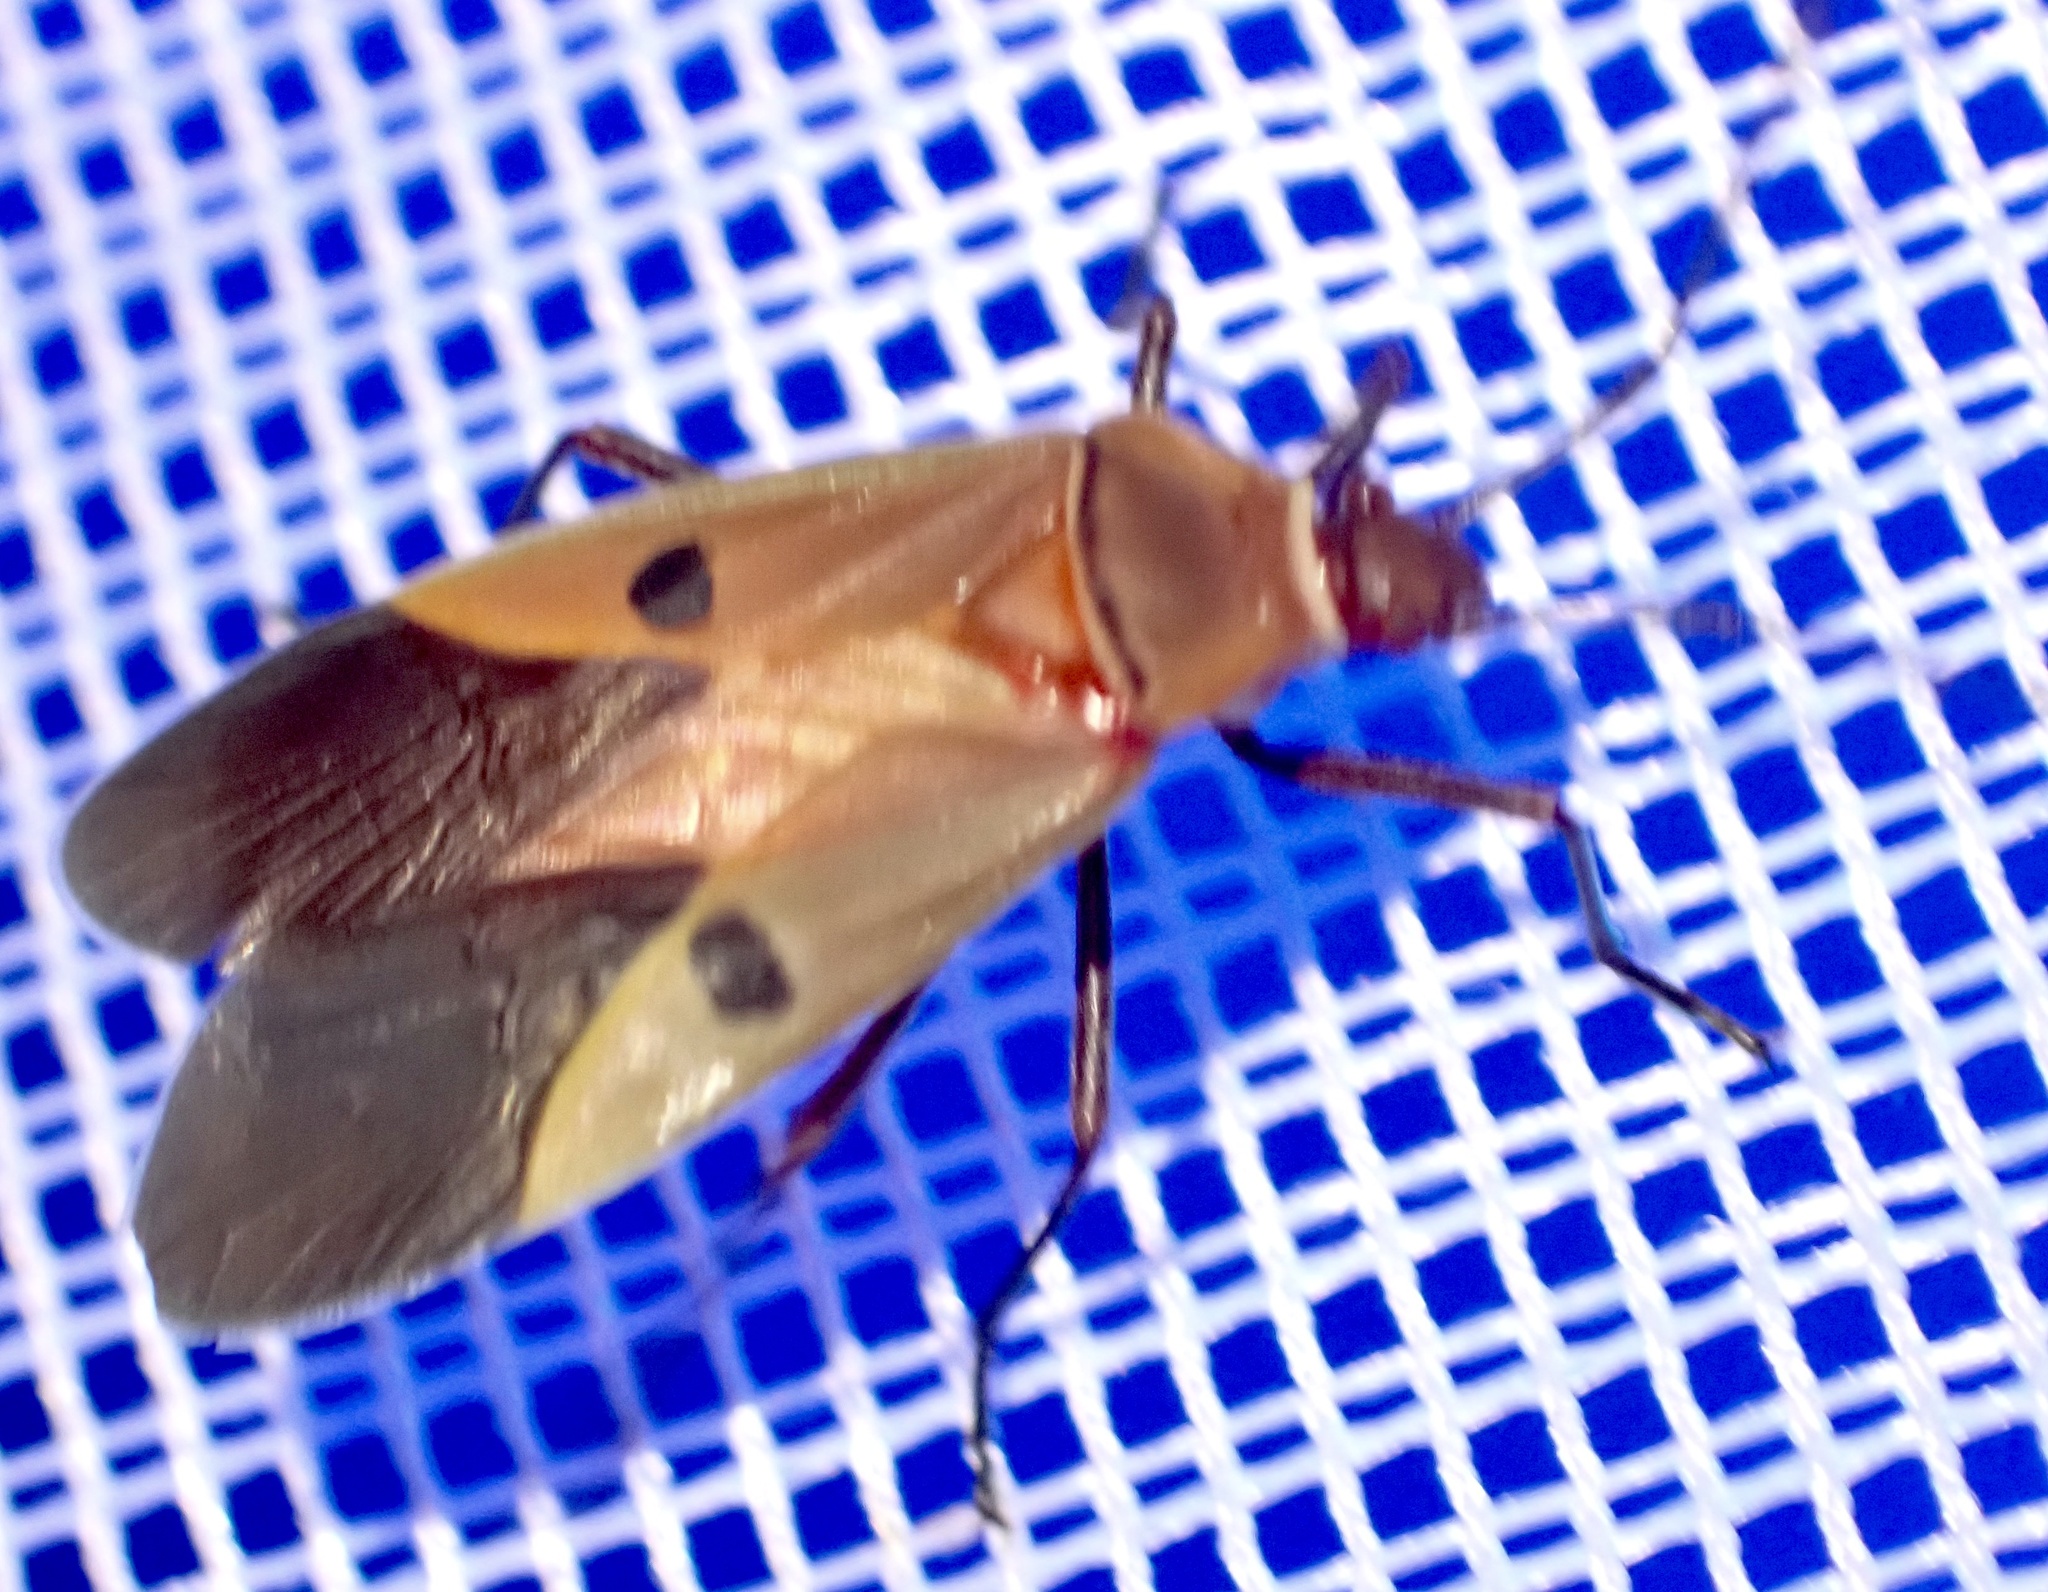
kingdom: Animalia
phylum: Arthropoda
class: Insecta
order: Hemiptera
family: Pyrrhocoridae
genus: Dysdercus
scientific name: Dysdercus superstitiosus
